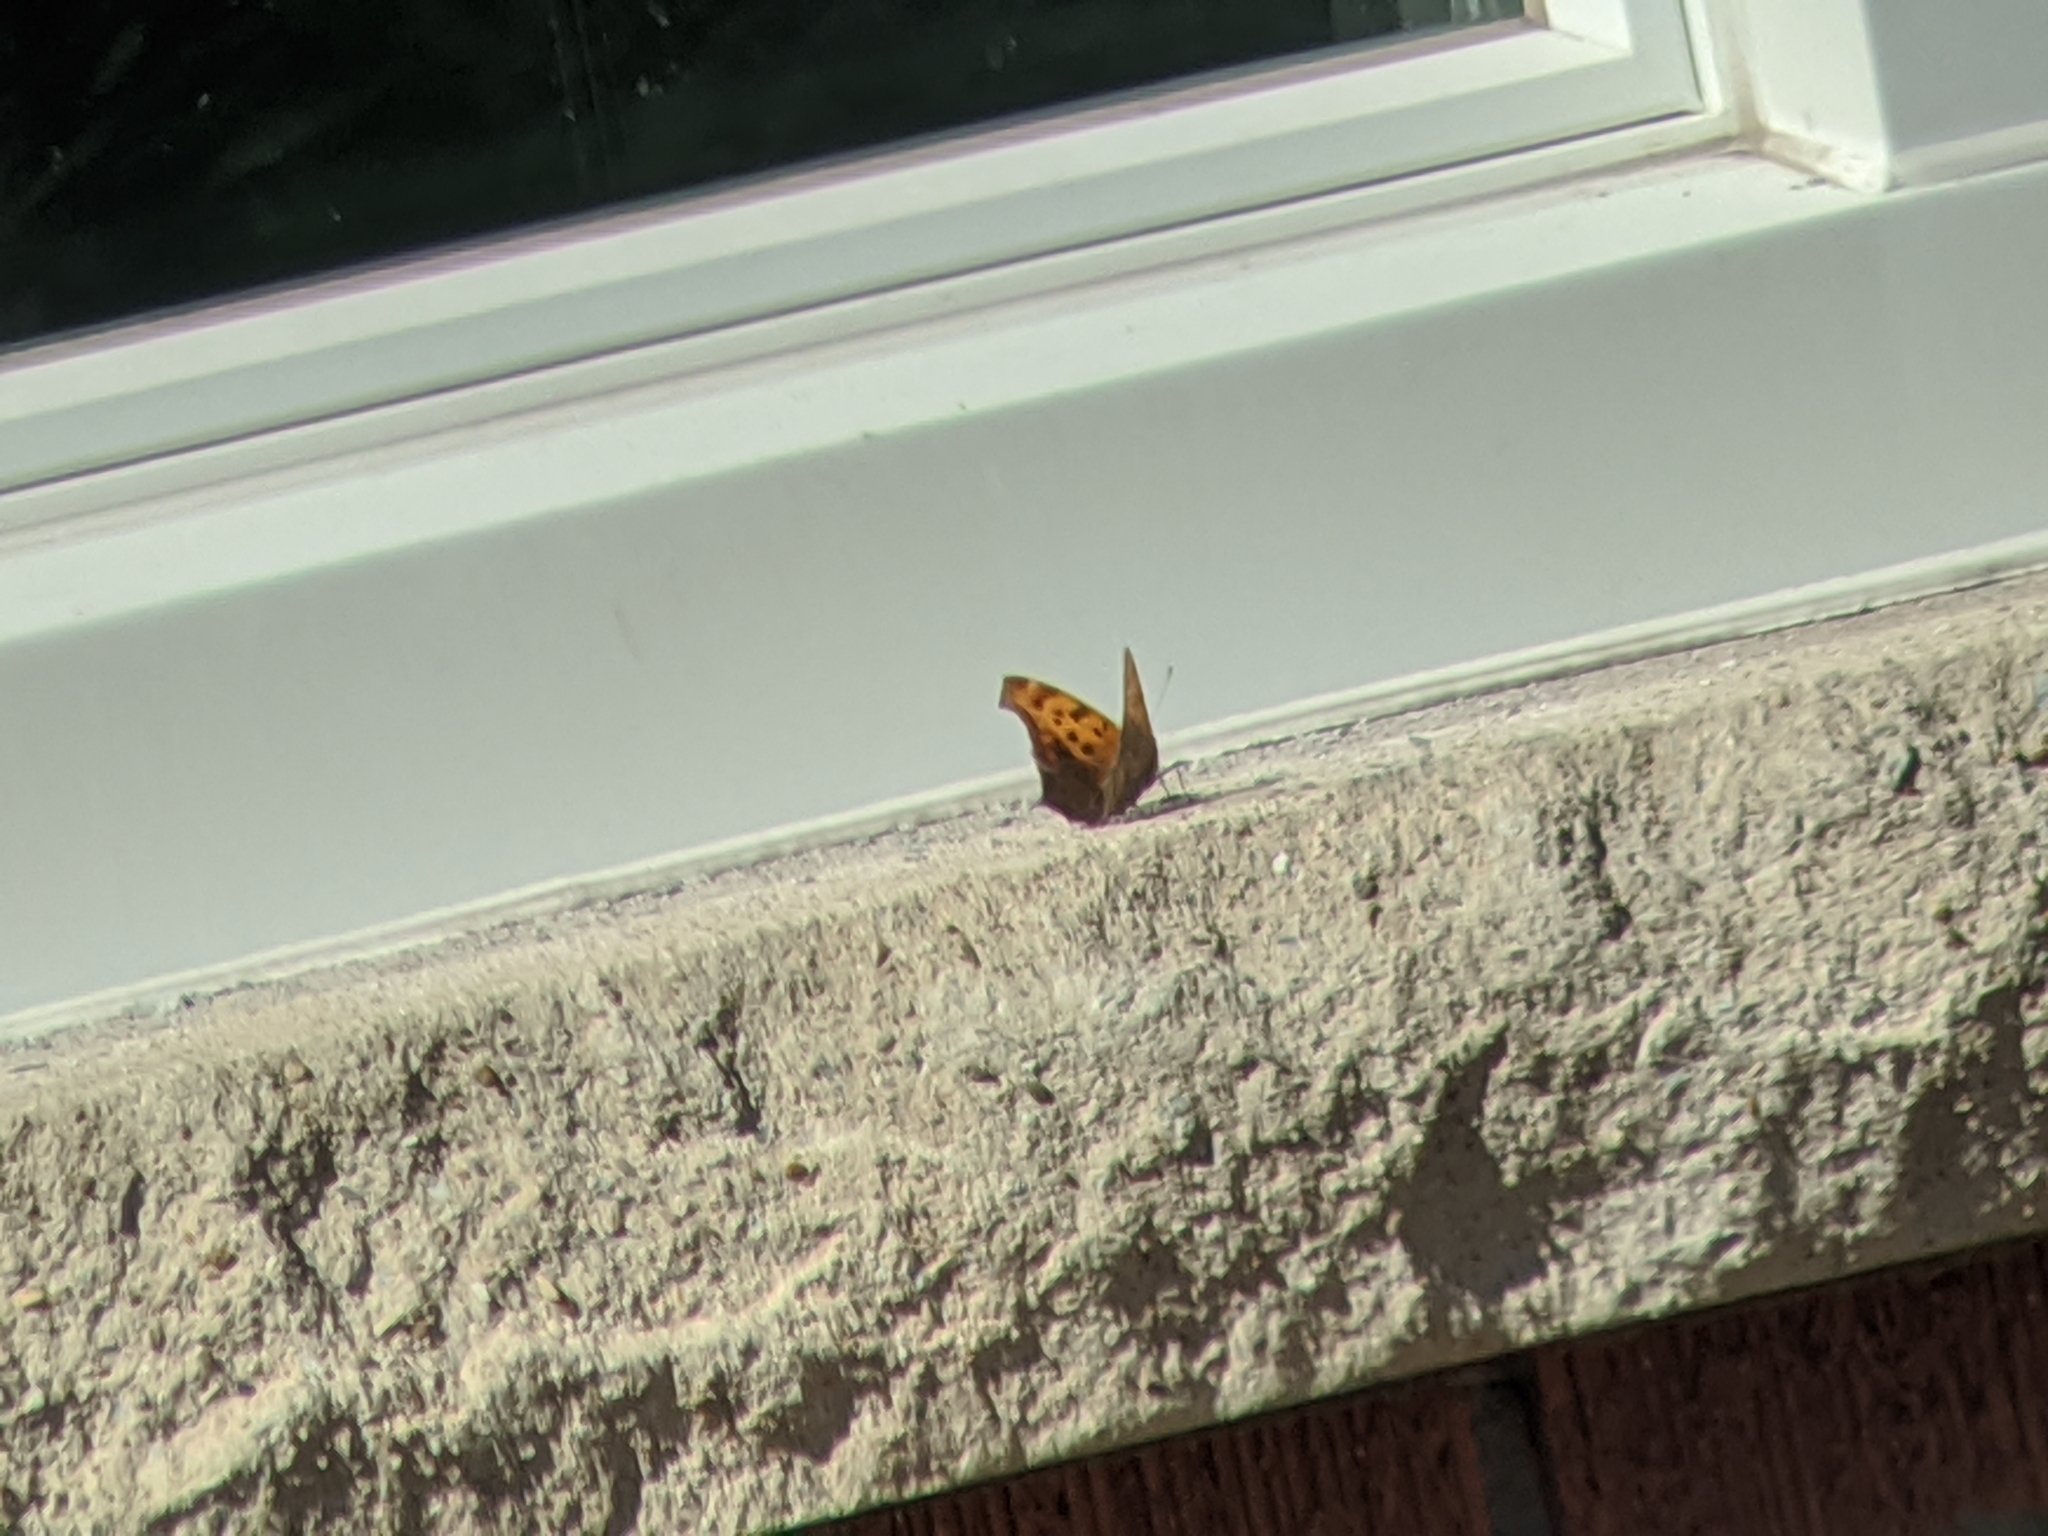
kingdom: Animalia
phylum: Arthropoda
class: Insecta
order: Lepidoptera
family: Nymphalidae
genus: Polygonia
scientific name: Polygonia interrogationis
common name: Question mark
